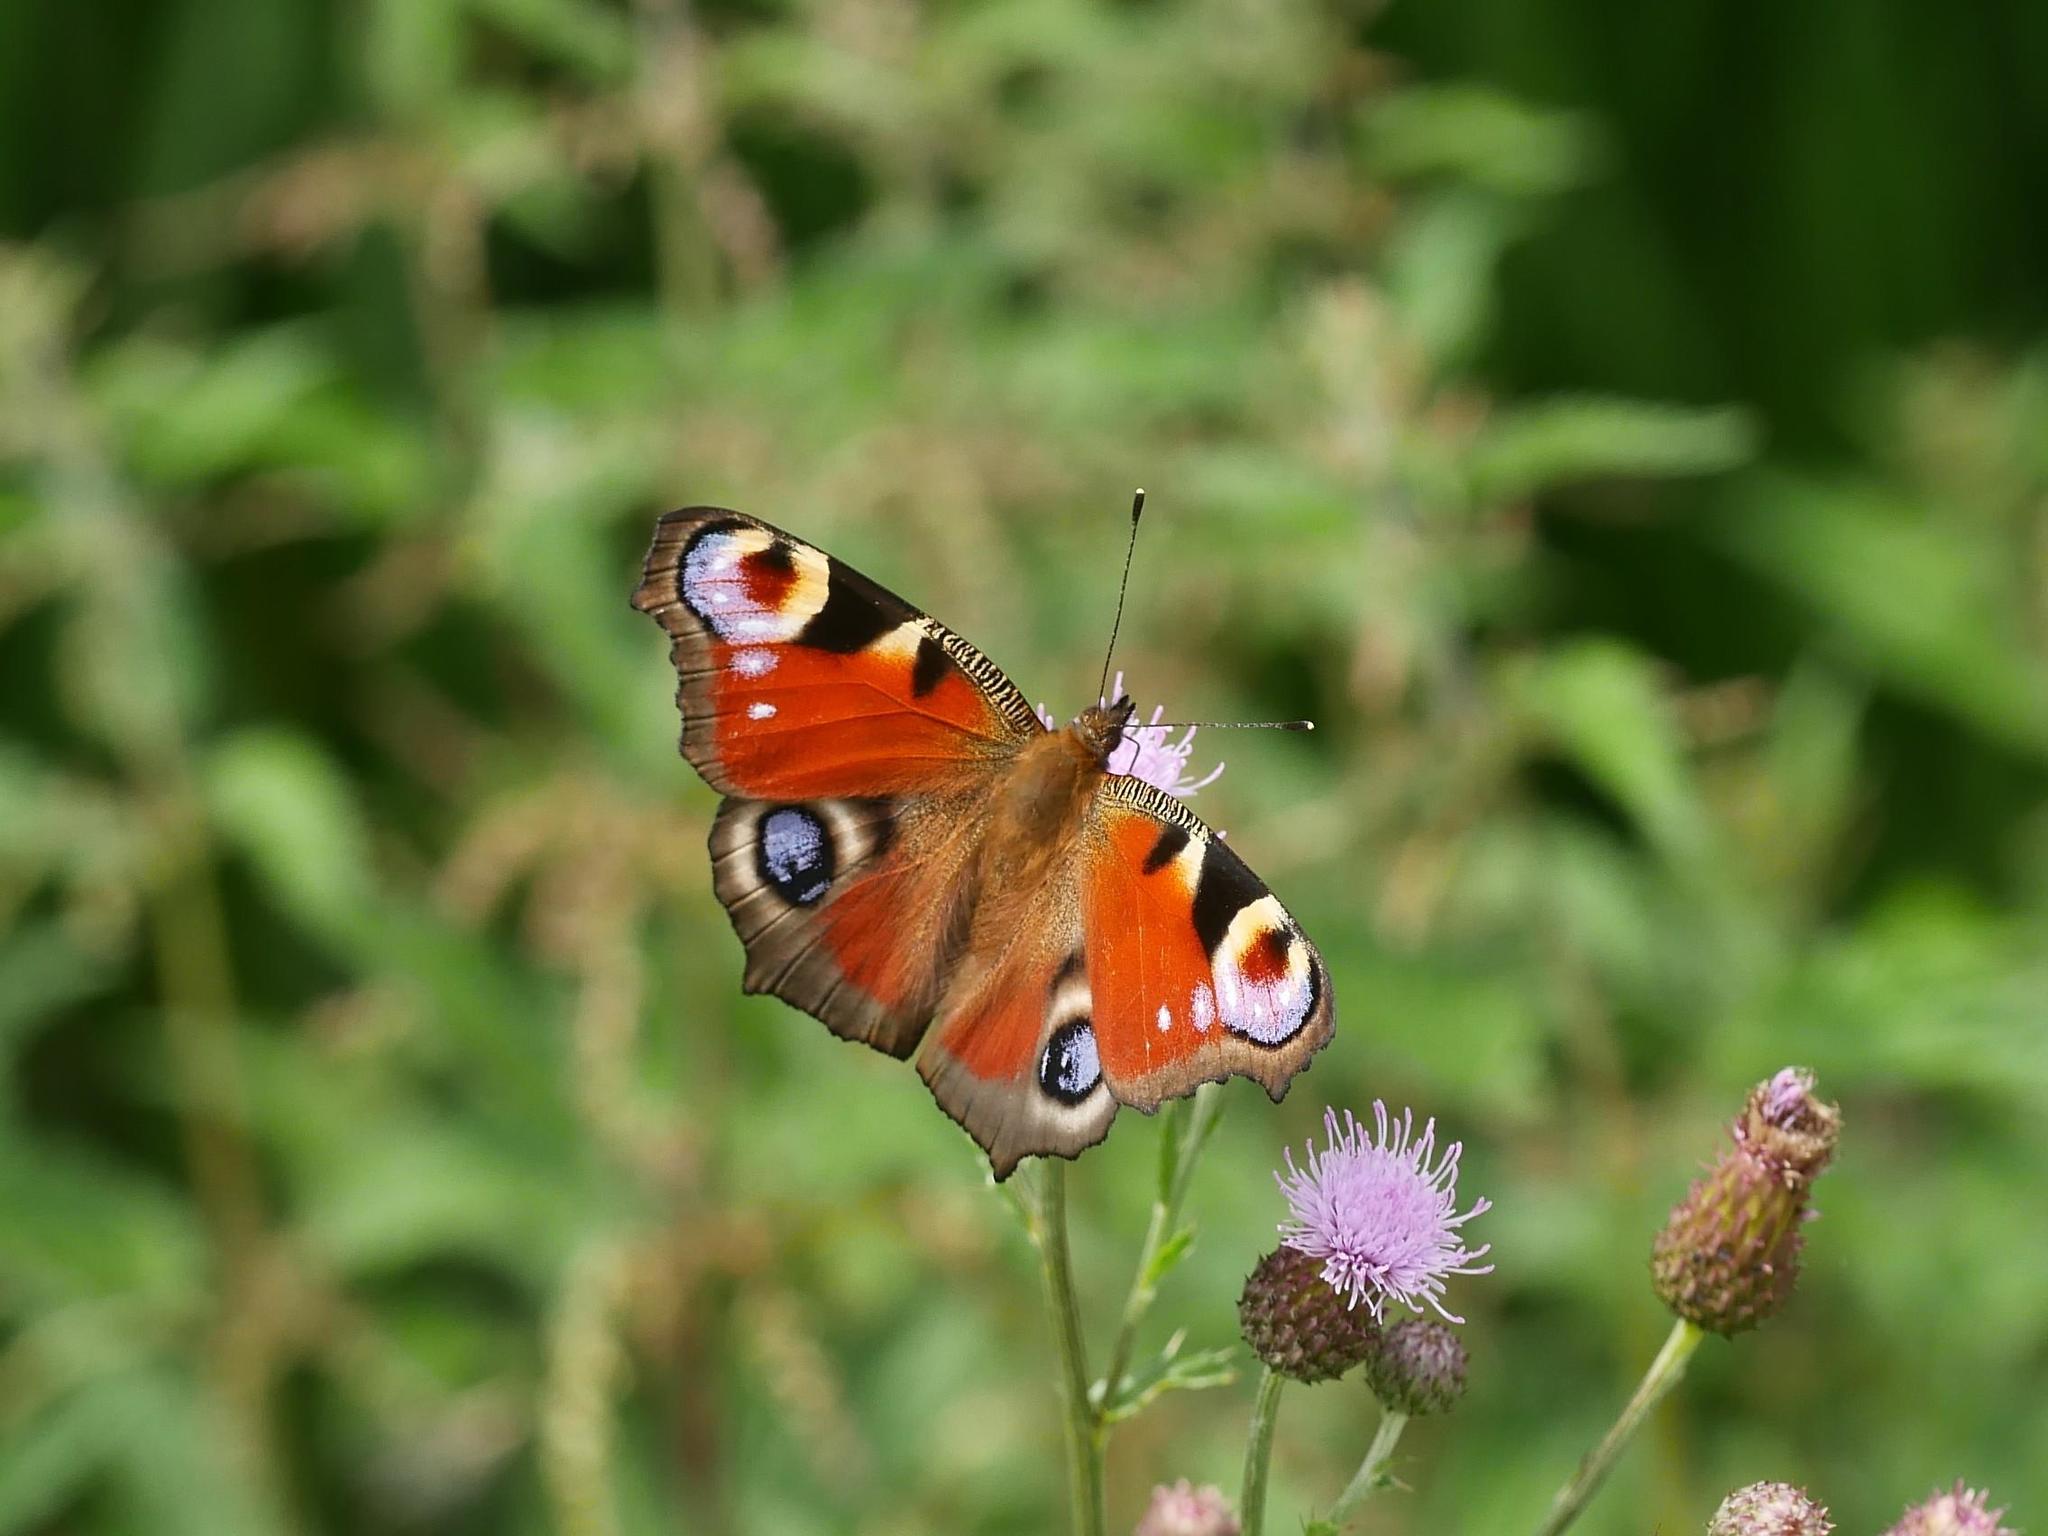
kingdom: Animalia
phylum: Arthropoda
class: Insecta
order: Lepidoptera
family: Nymphalidae
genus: Aglais
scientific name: Aglais io
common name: Peacock
